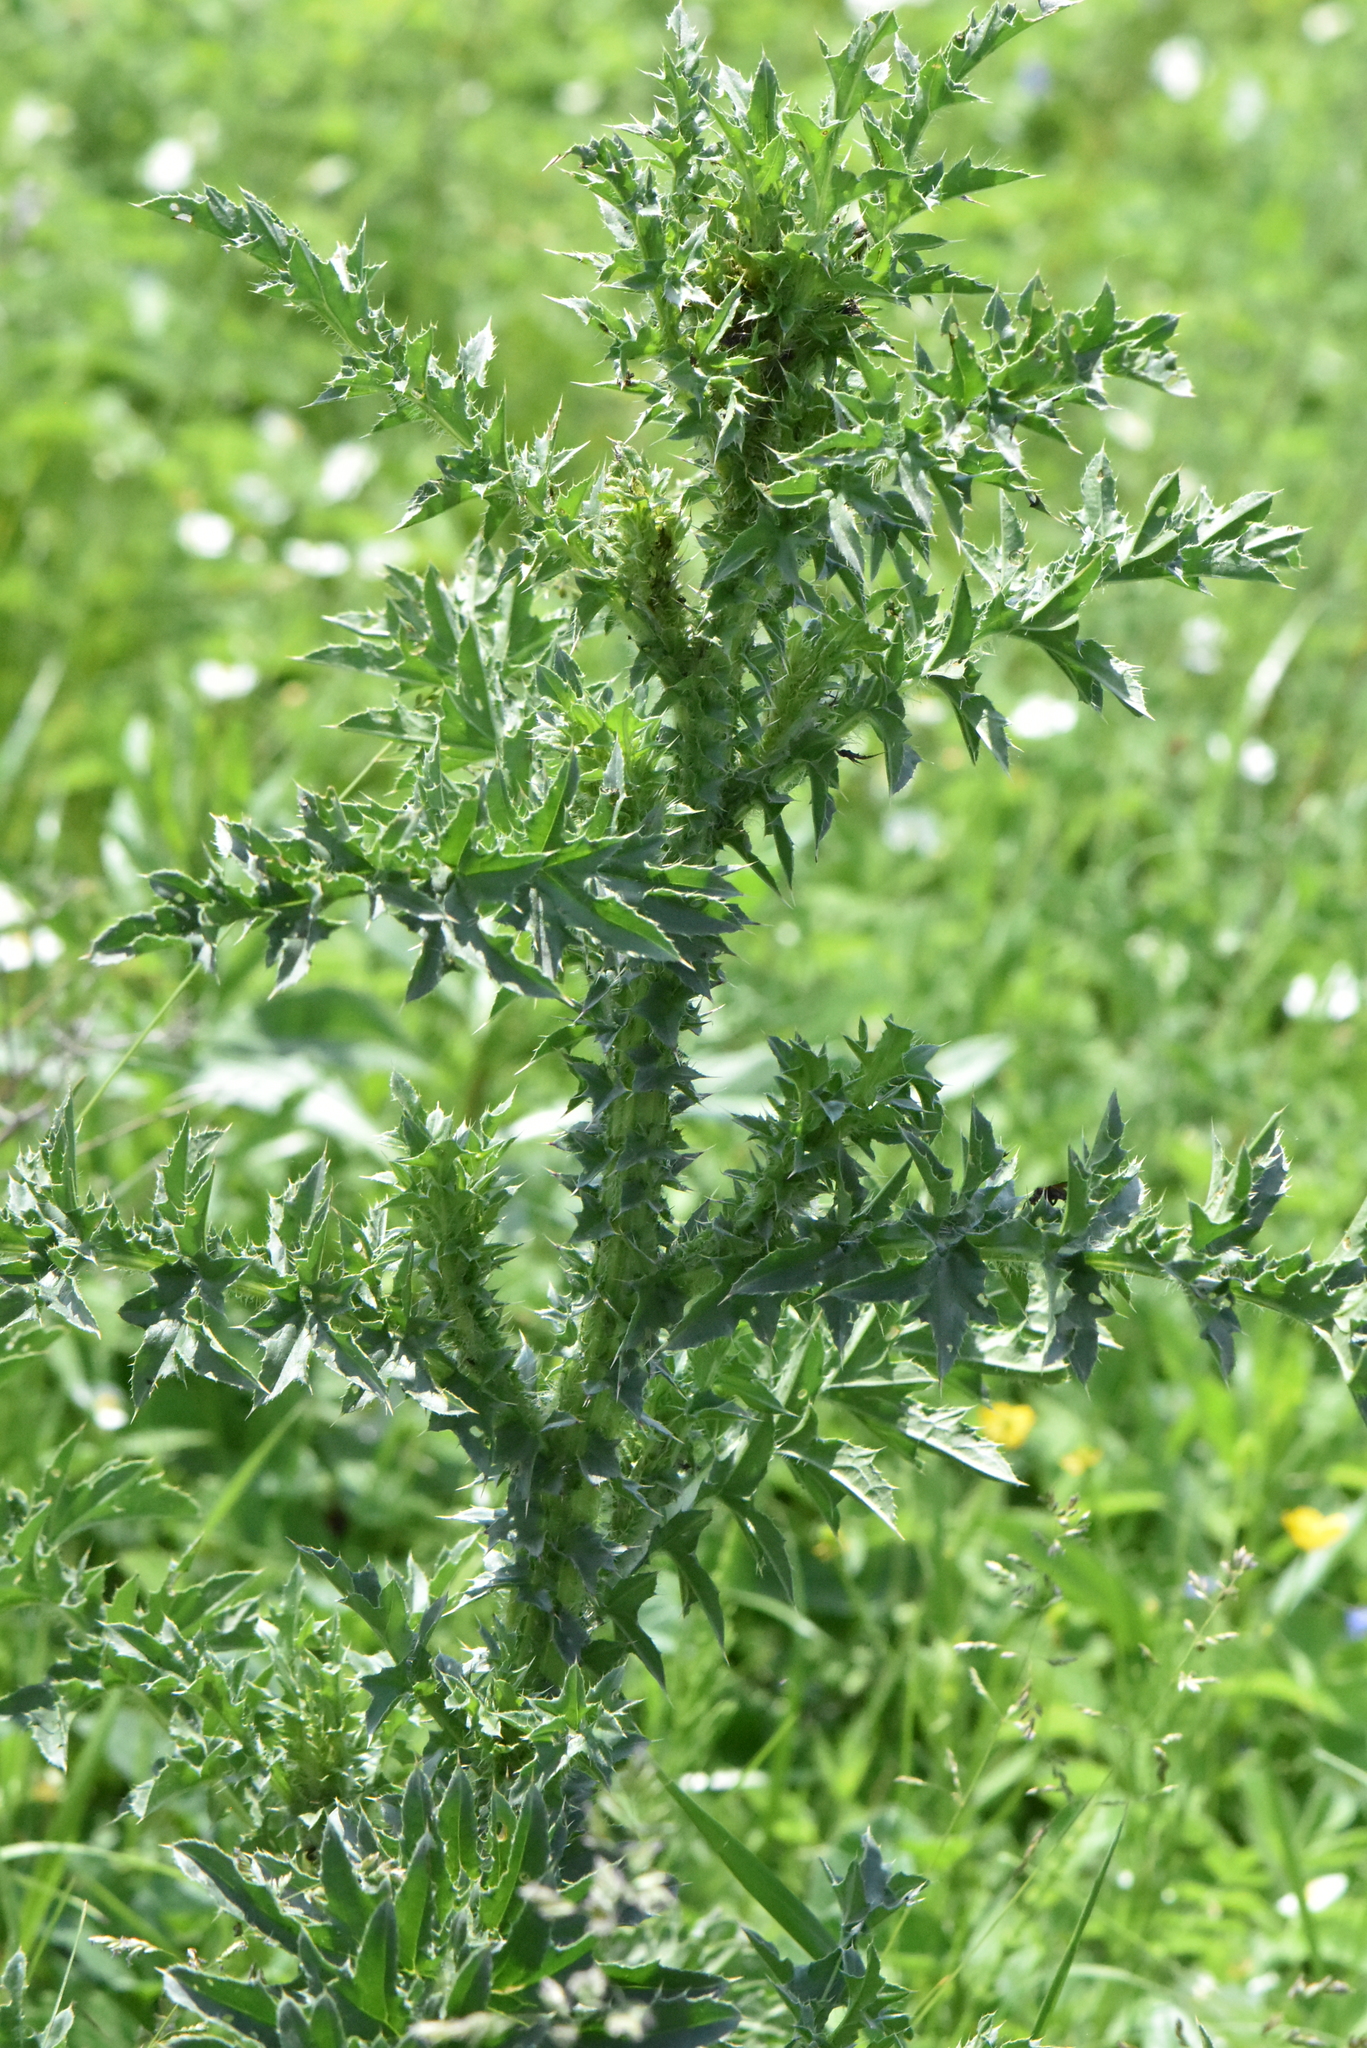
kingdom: Plantae
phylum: Tracheophyta
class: Magnoliopsida
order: Asterales
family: Asteraceae
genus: Carduus
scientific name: Carduus acanthoides
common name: Plumeless thistle
